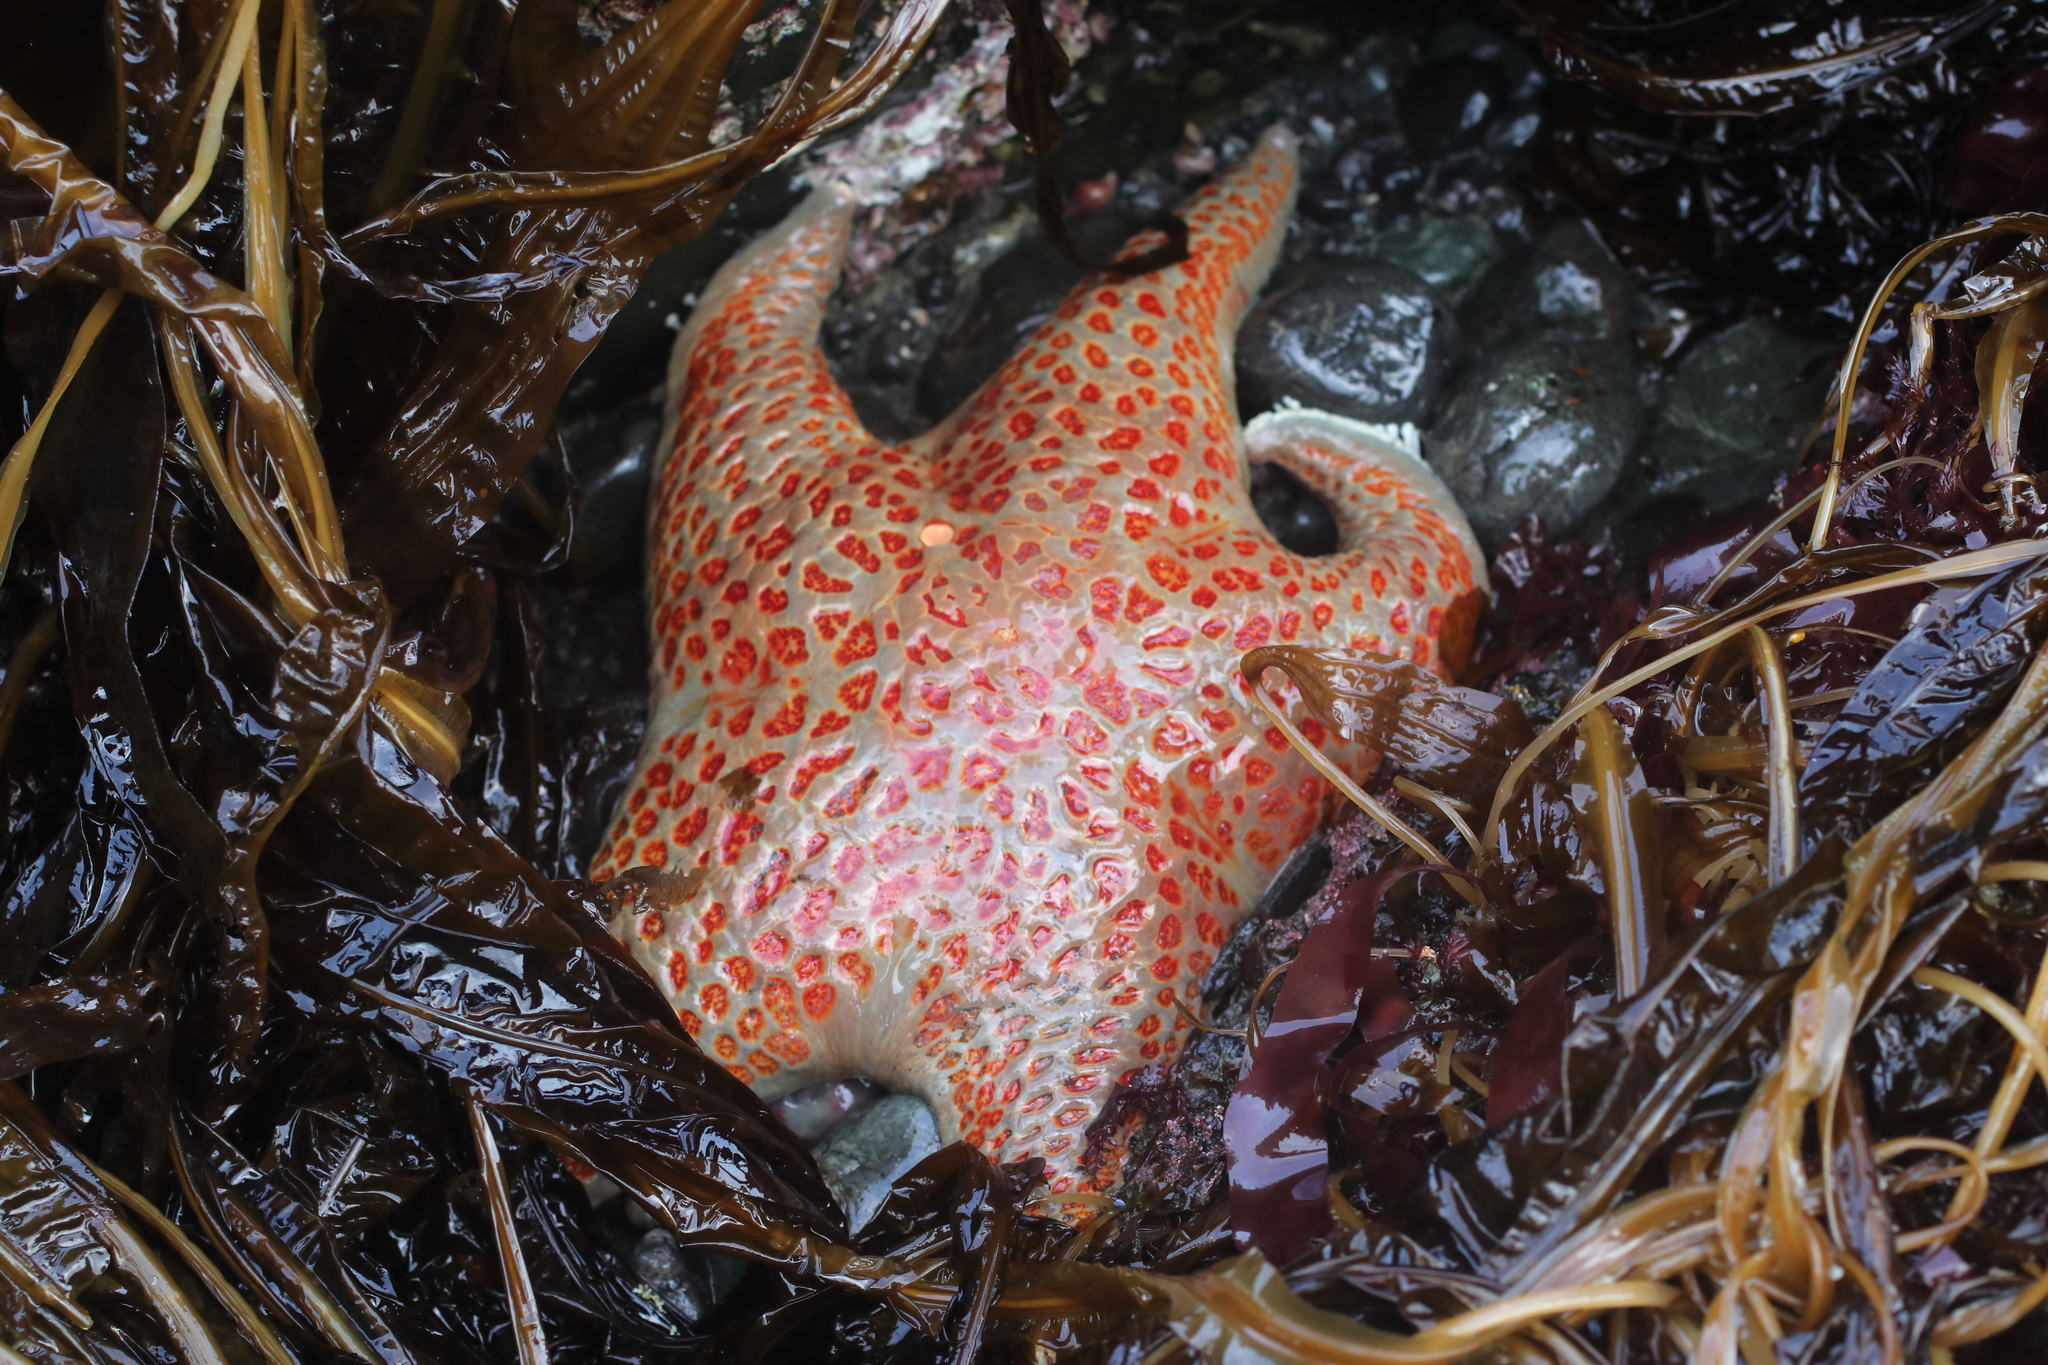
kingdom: Animalia
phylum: Echinodermata
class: Asteroidea
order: Valvatida
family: Asteropseidae
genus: Dermasterias
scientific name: Dermasterias imbricata
